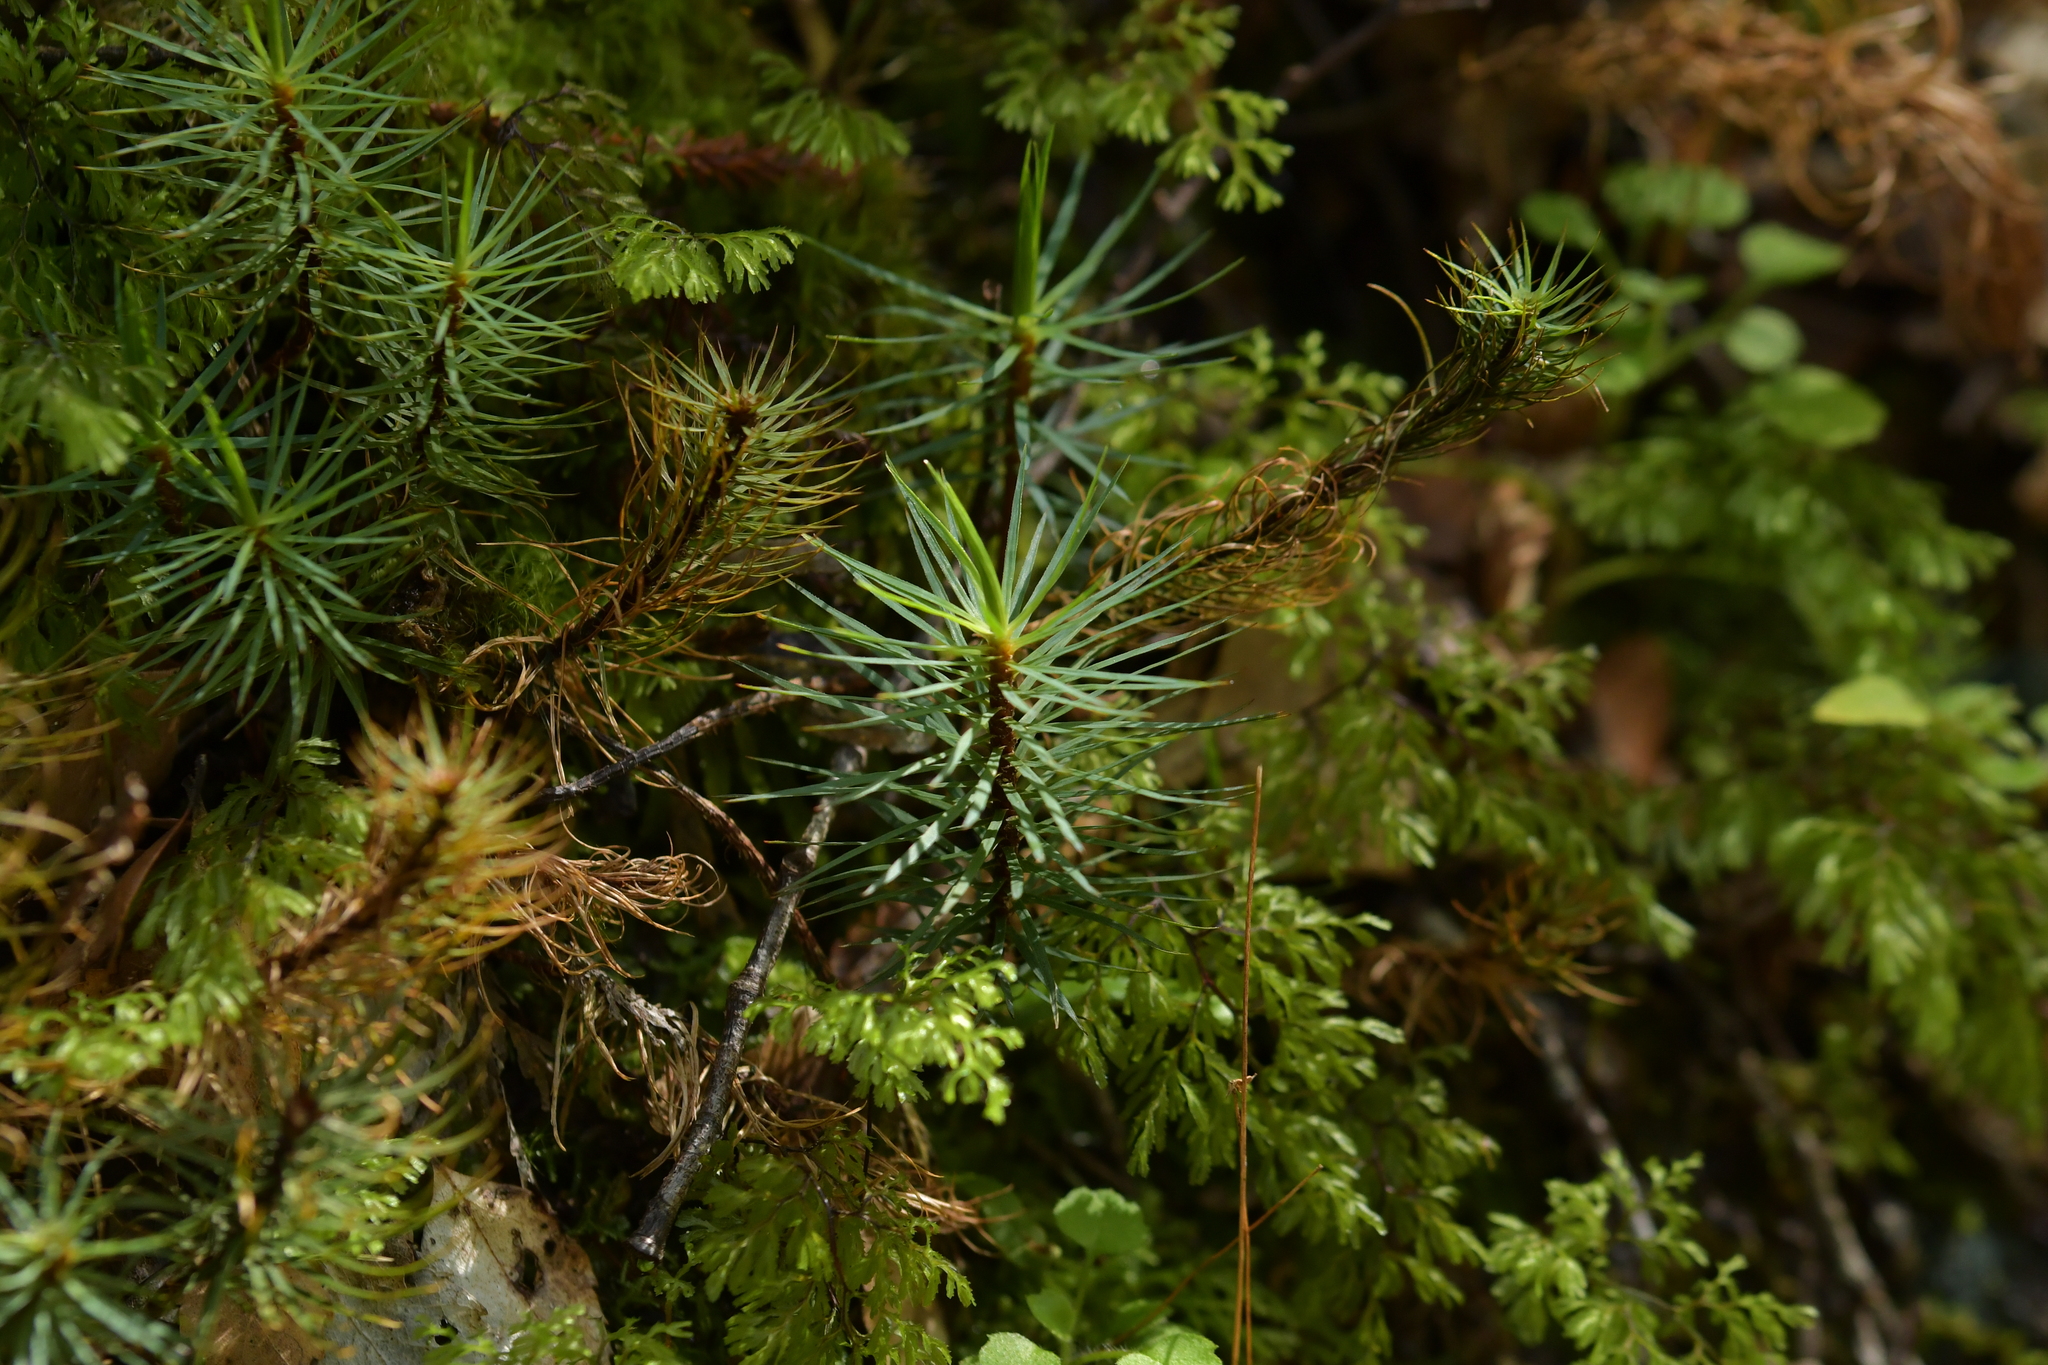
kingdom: Plantae
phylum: Bryophyta
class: Polytrichopsida
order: Polytrichales
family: Polytrichaceae
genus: Dawsonia
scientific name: Dawsonia superba
